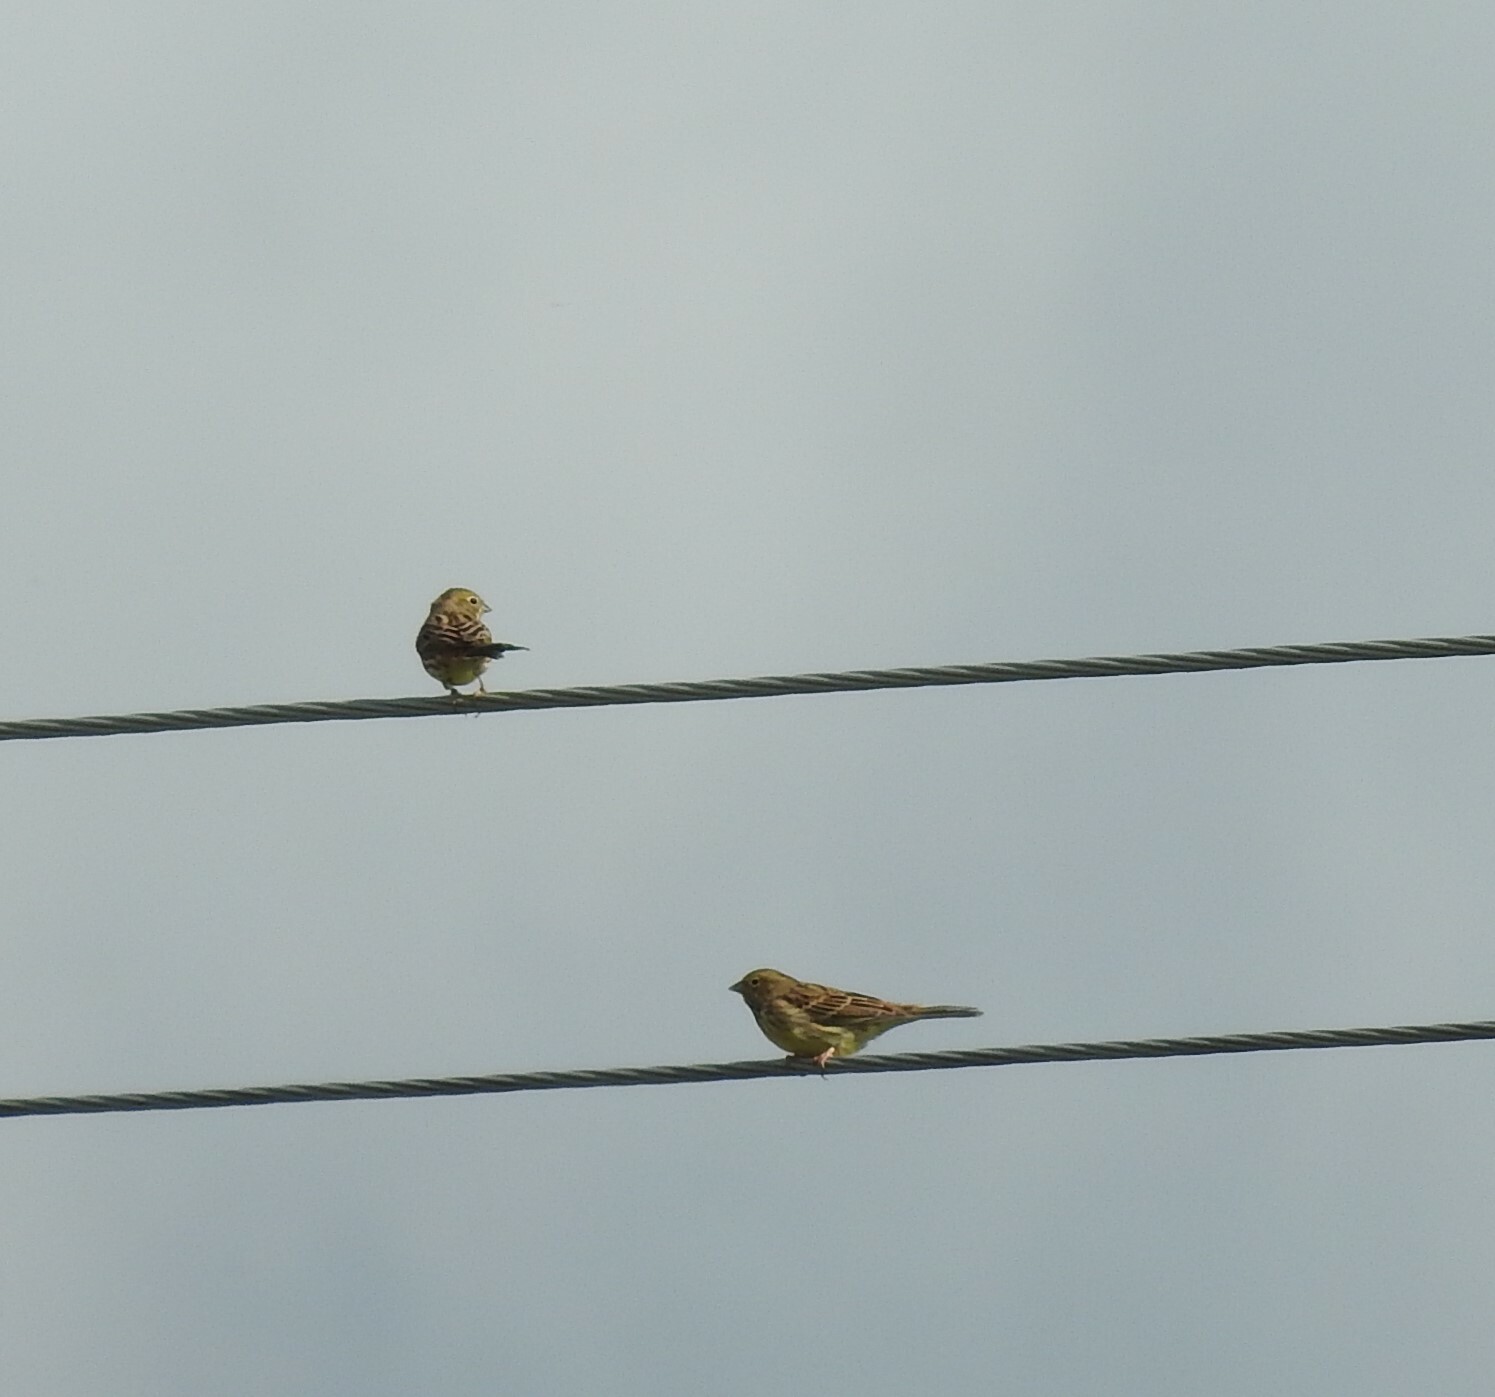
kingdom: Animalia
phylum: Chordata
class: Aves
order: Passeriformes
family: Emberizidae
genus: Emberiza
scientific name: Emberiza citrinella
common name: Yellowhammer
